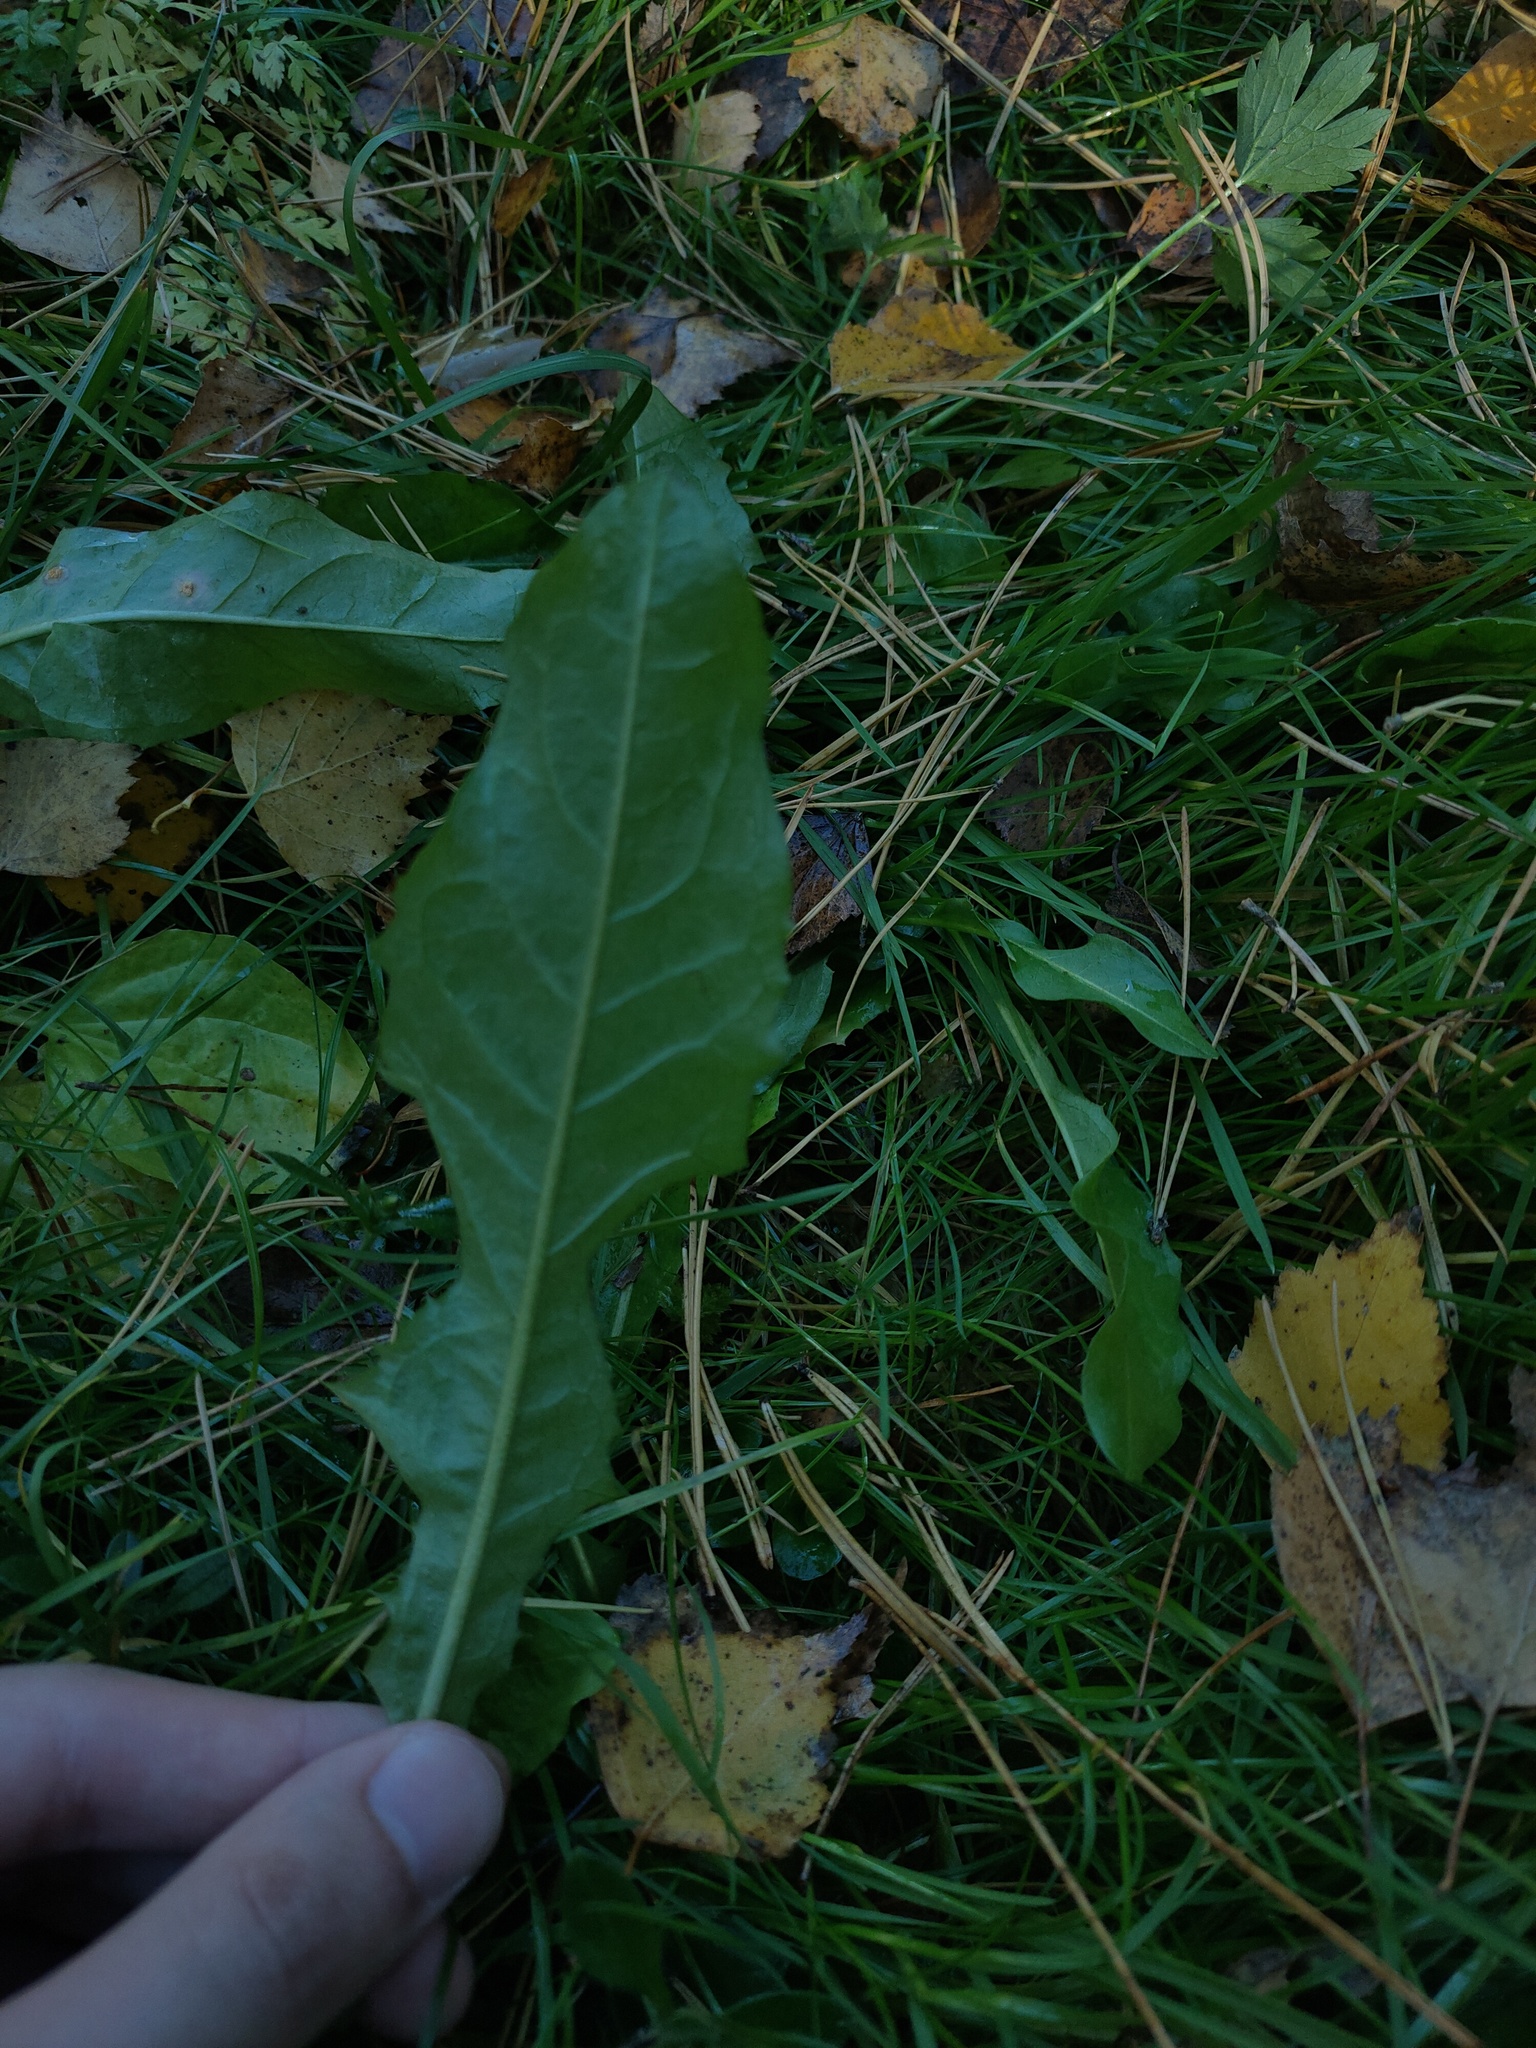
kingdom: Plantae
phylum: Tracheophyta
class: Magnoliopsida
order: Asterales
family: Asteraceae
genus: Taraxacum
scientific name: Taraxacum officinale
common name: Common dandelion
